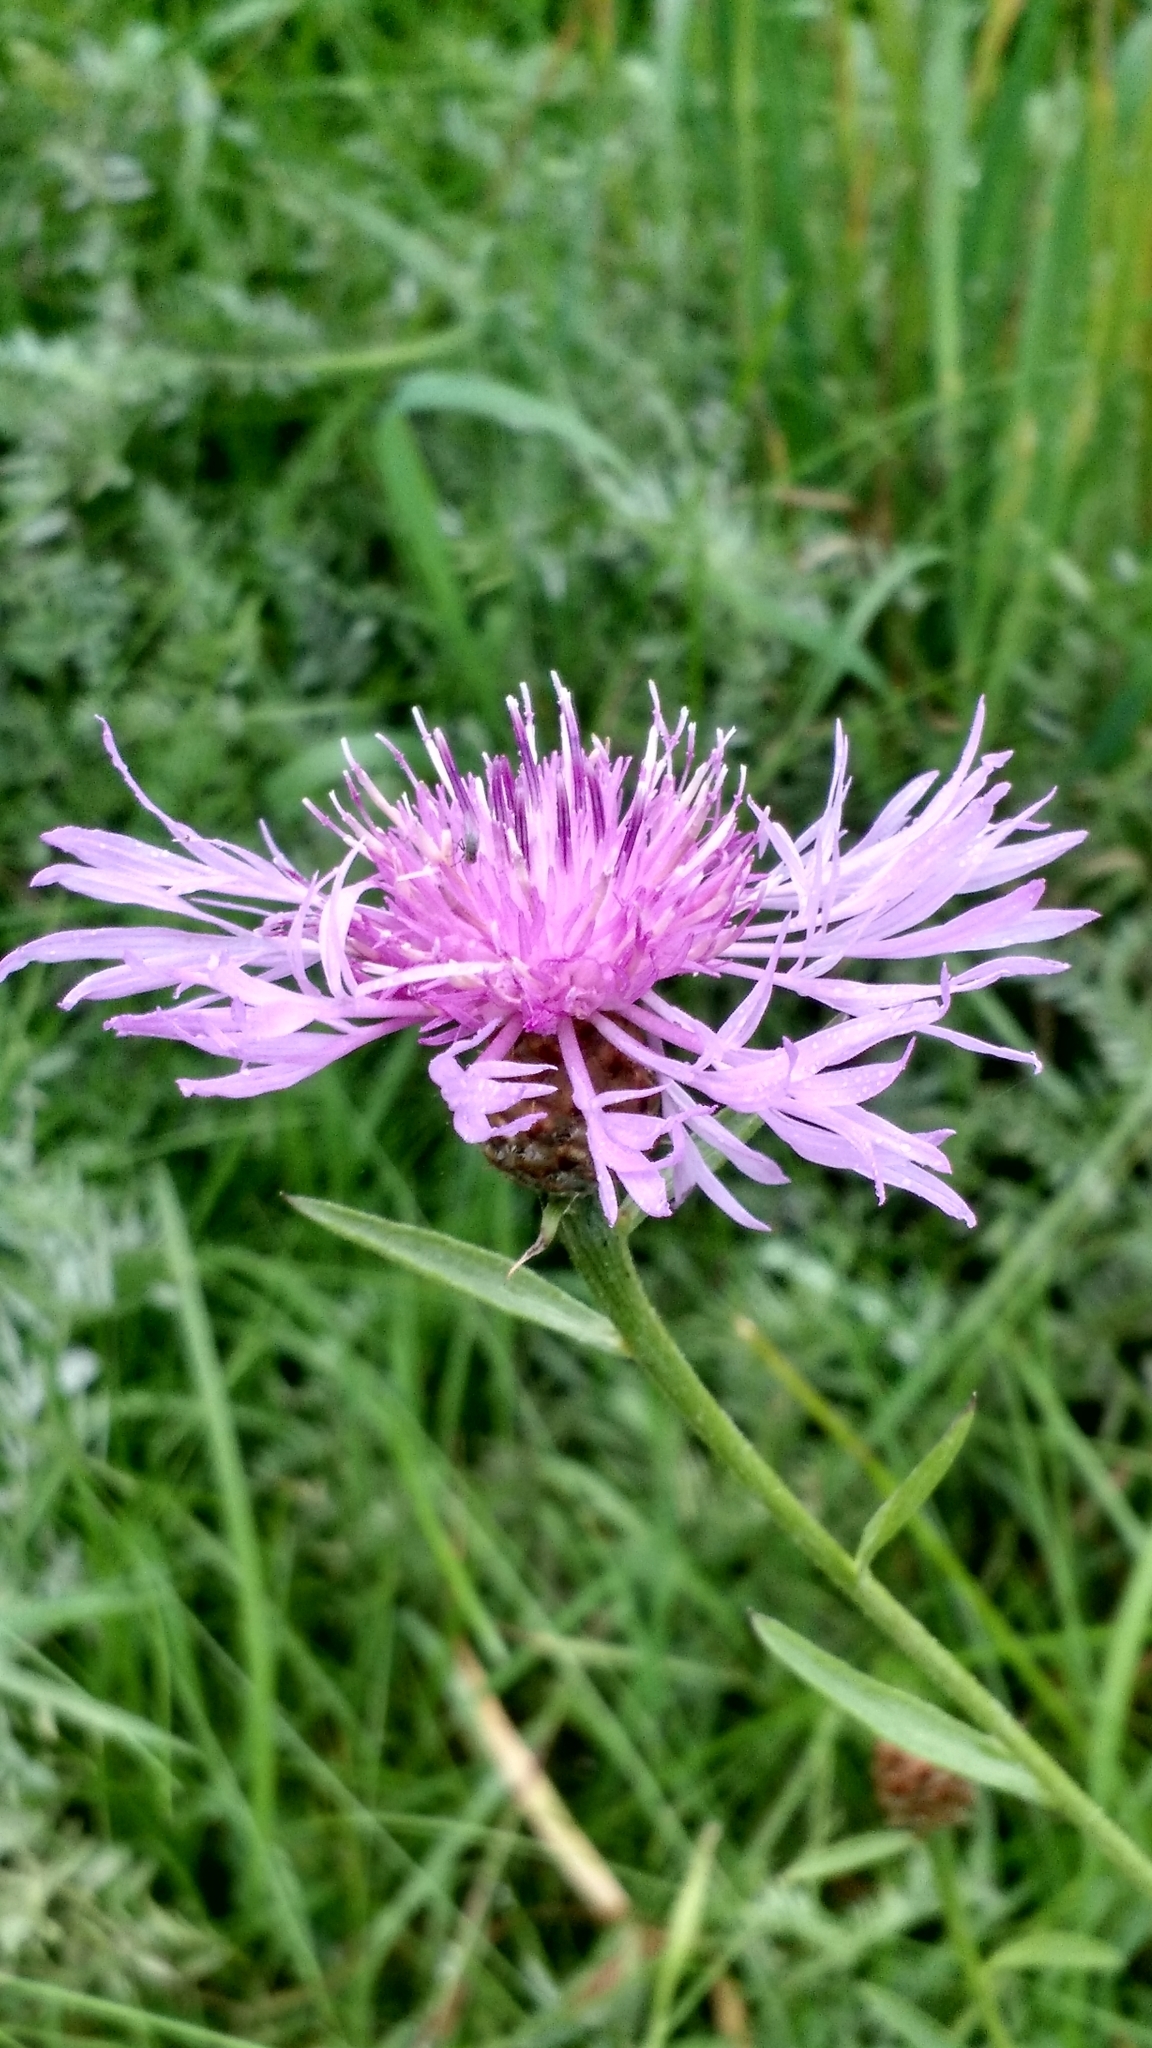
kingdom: Plantae
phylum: Tracheophyta
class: Magnoliopsida
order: Asterales
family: Asteraceae
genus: Centaurea
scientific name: Centaurea jacea
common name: Brown knapweed
